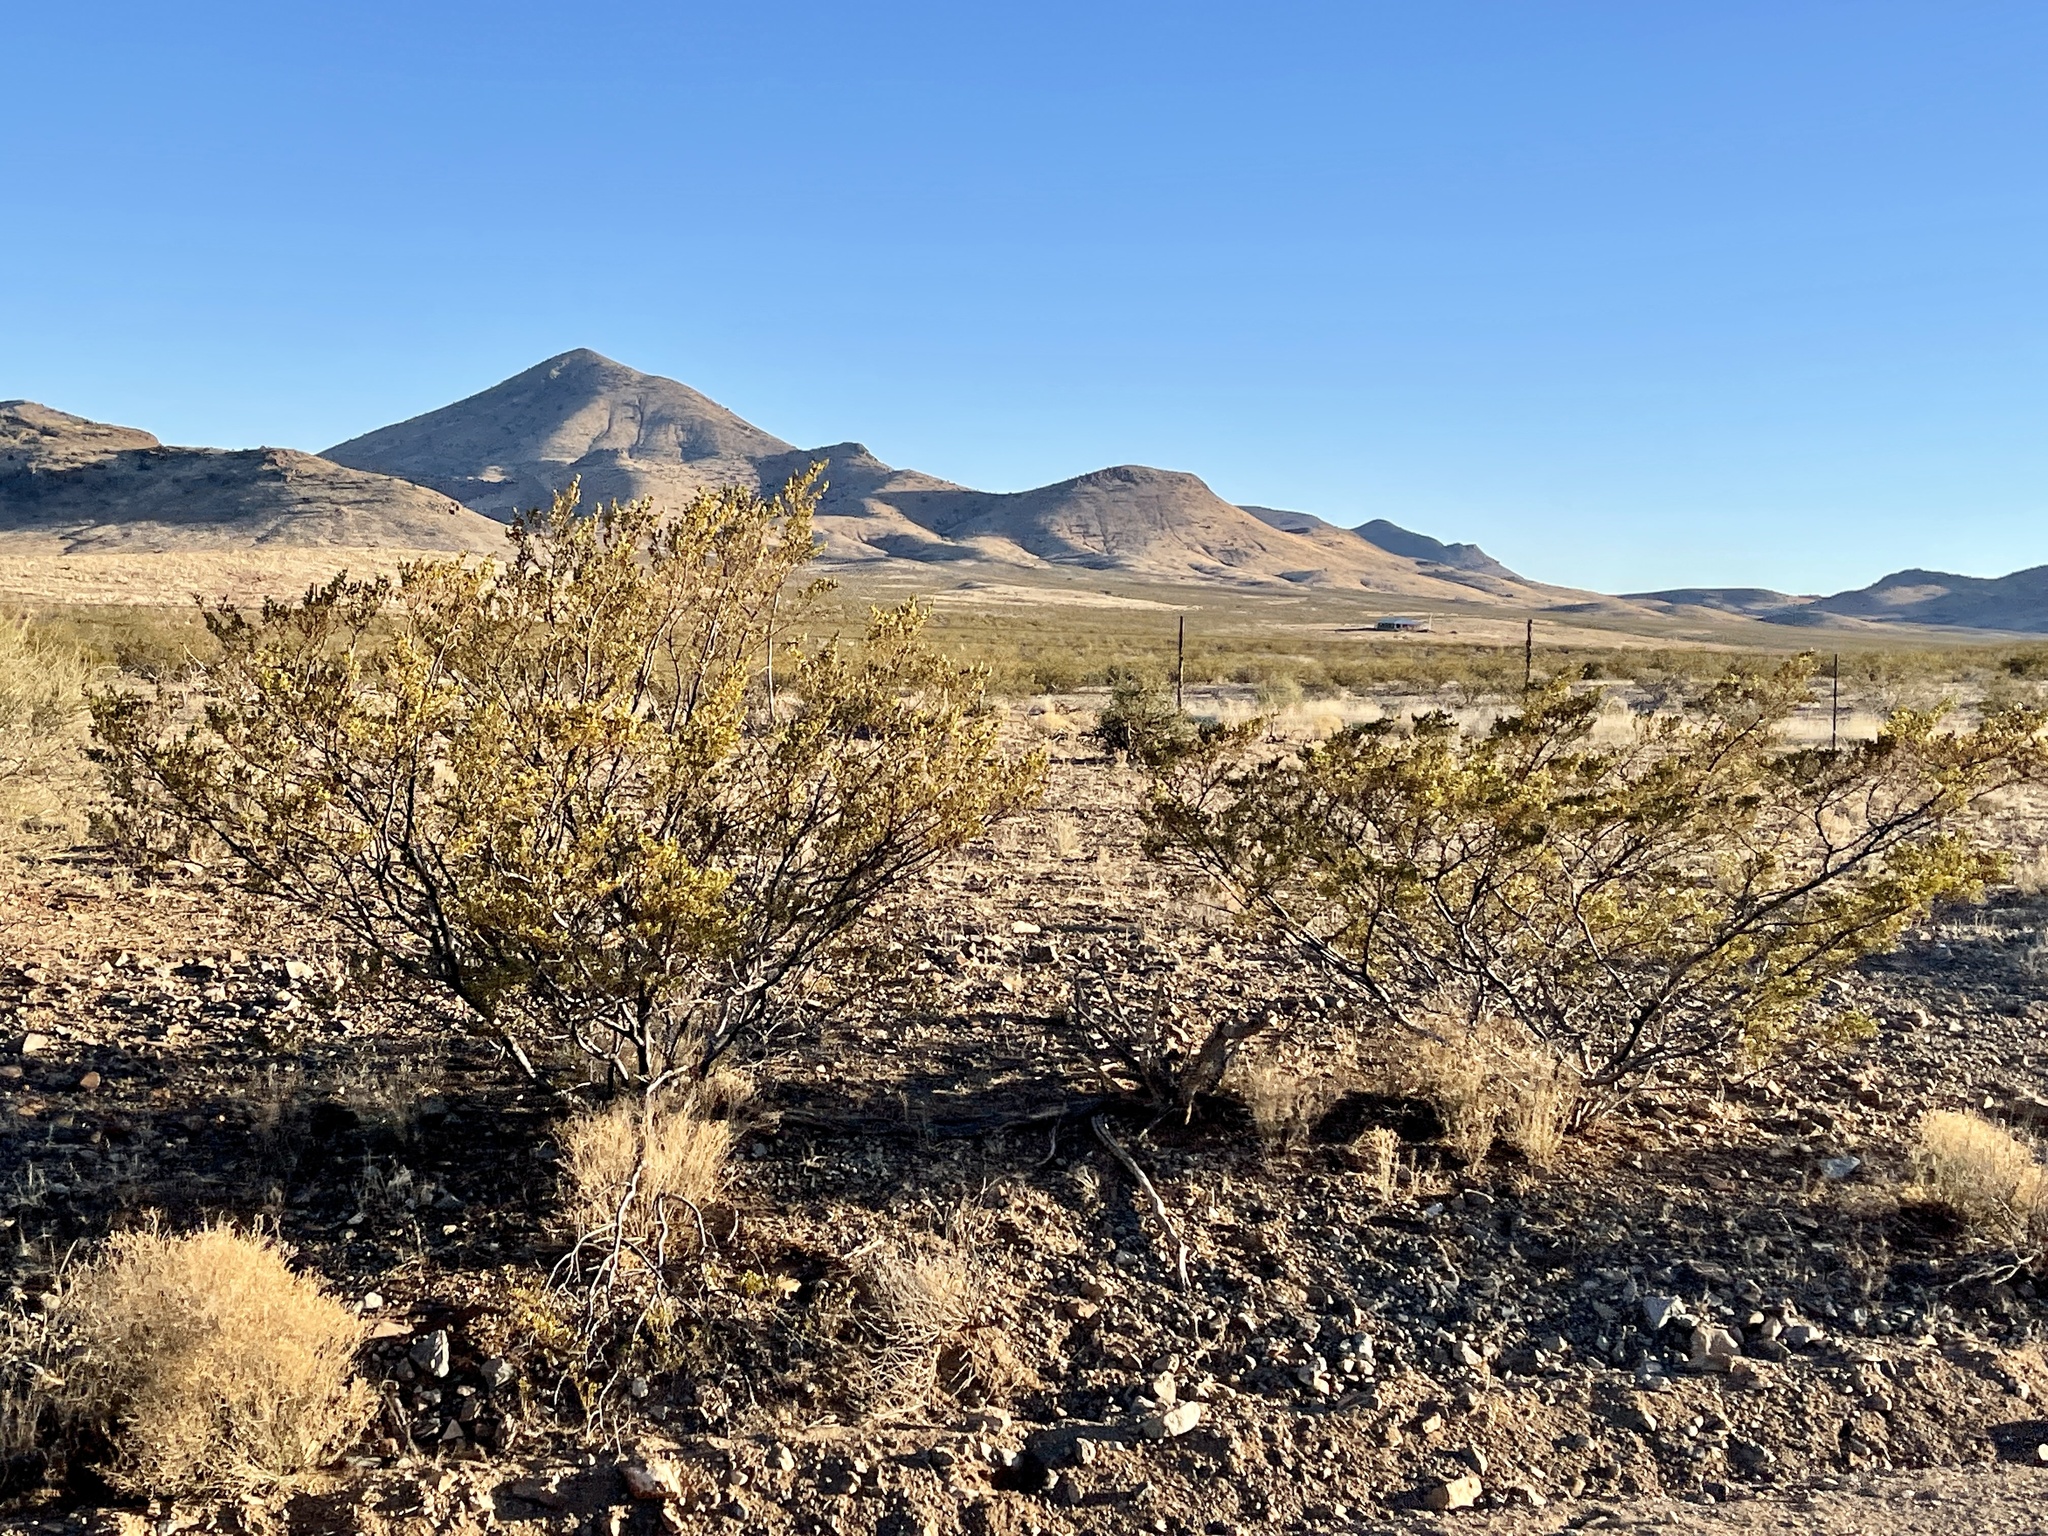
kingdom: Plantae
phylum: Tracheophyta
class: Magnoliopsida
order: Zygophyllales
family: Zygophyllaceae
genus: Larrea
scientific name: Larrea tridentata
